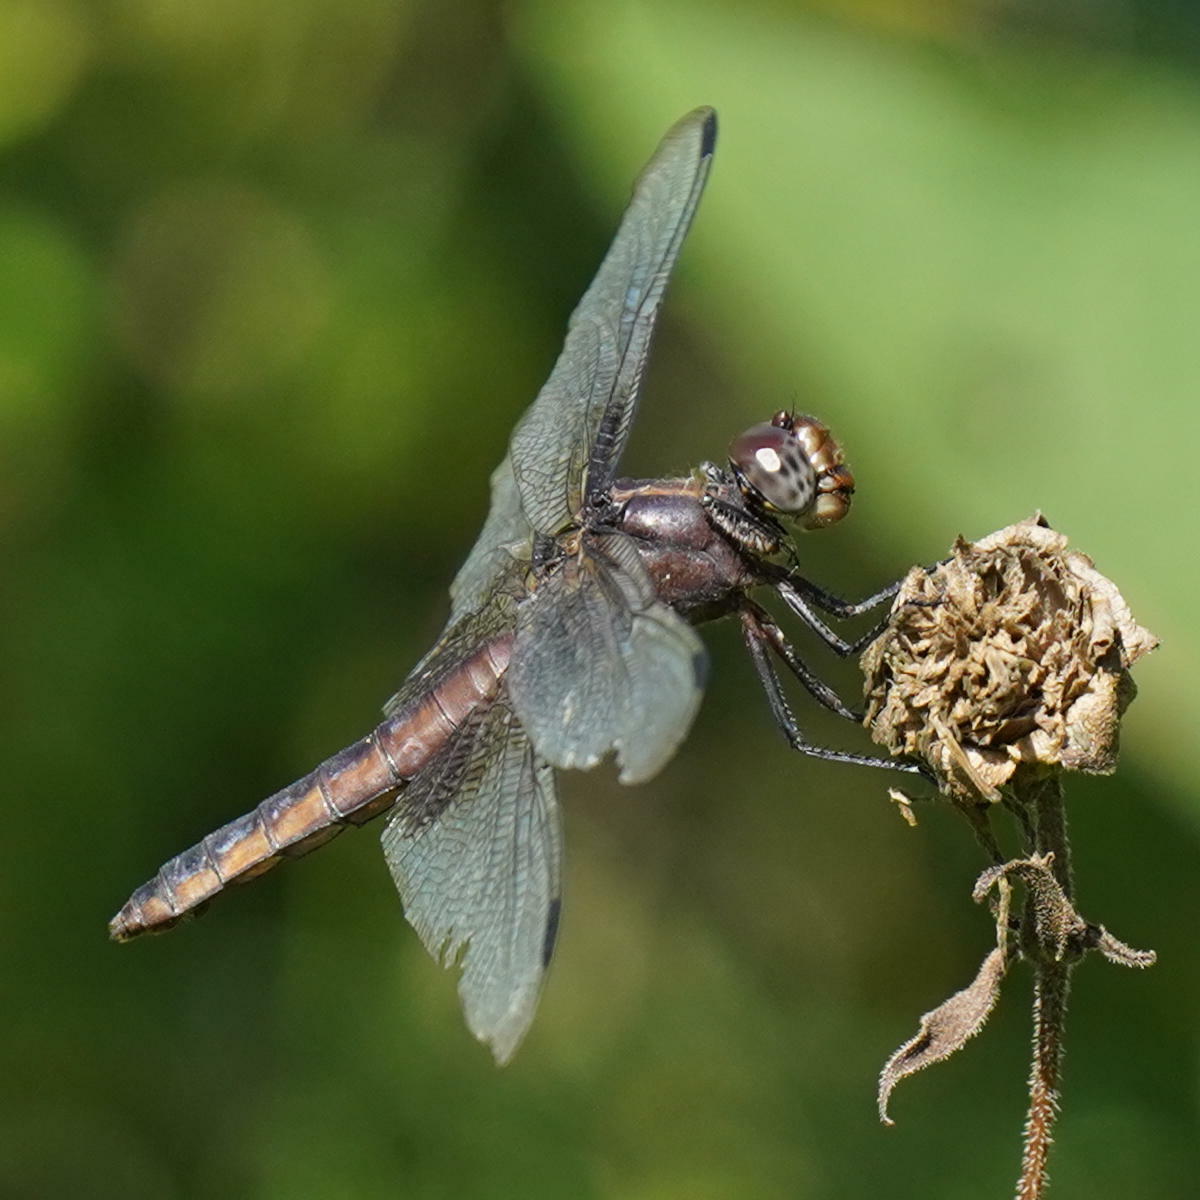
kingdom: Animalia
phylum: Arthropoda
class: Insecta
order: Odonata
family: Libellulidae
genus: Libellula
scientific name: Libellula luctuosa
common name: Widow skimmer
